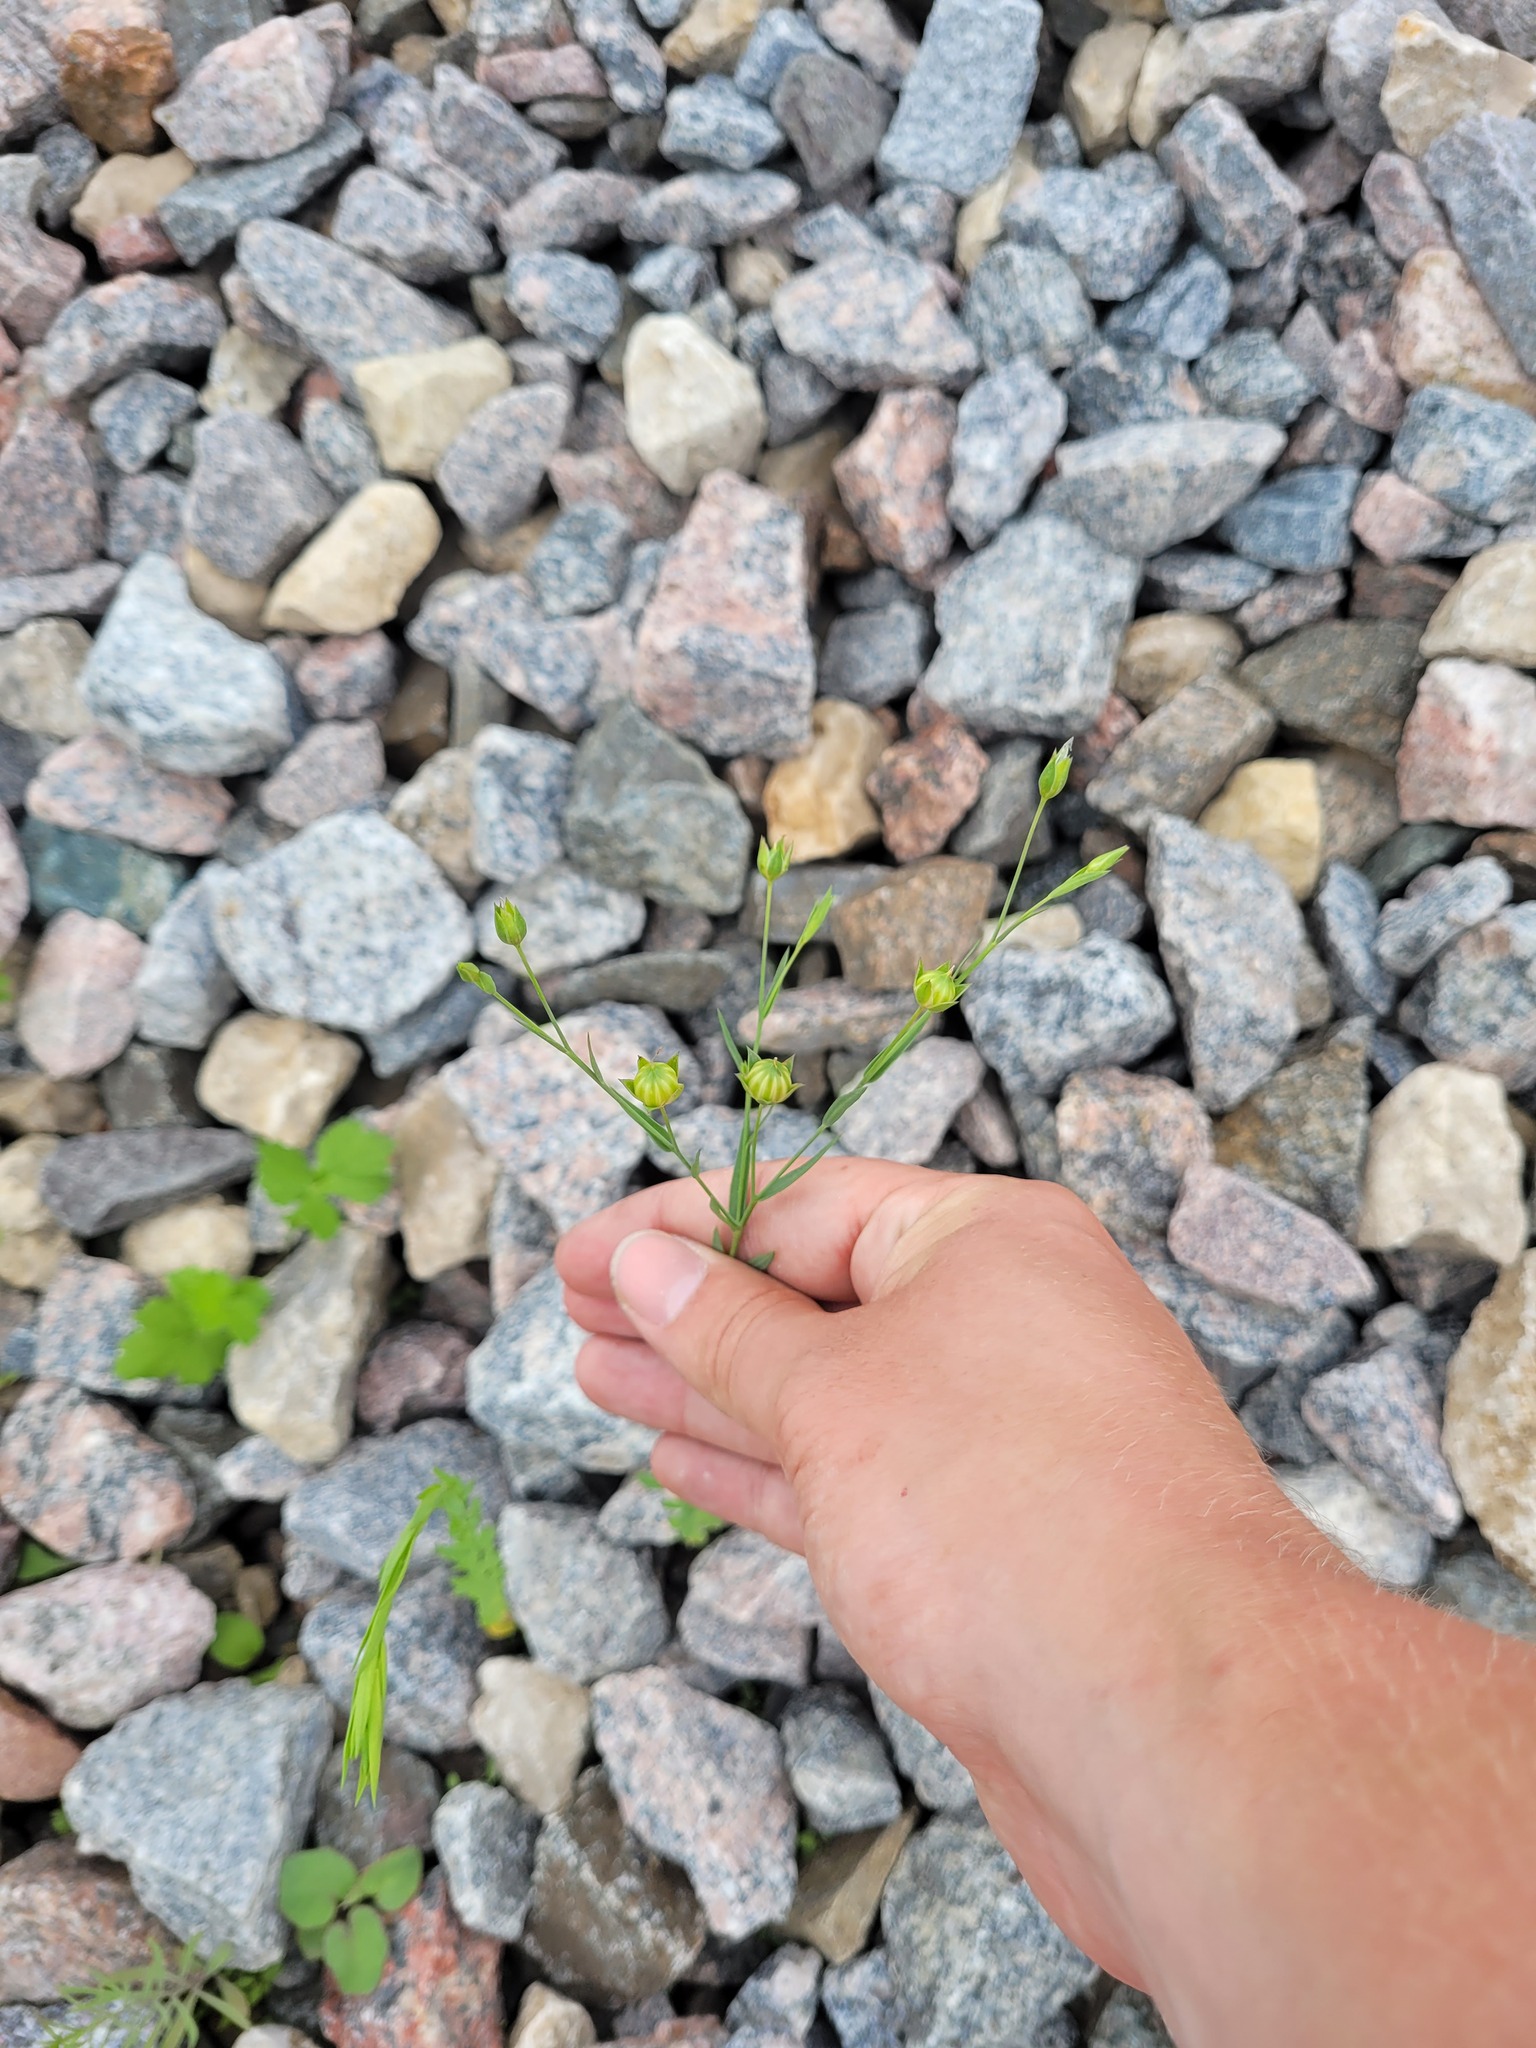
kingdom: Plantae
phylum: Tracheophyta
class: Magnoliopsida
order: Malpighiales
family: Linaceae
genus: Linum
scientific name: Linum usitatissimum
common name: Flax
